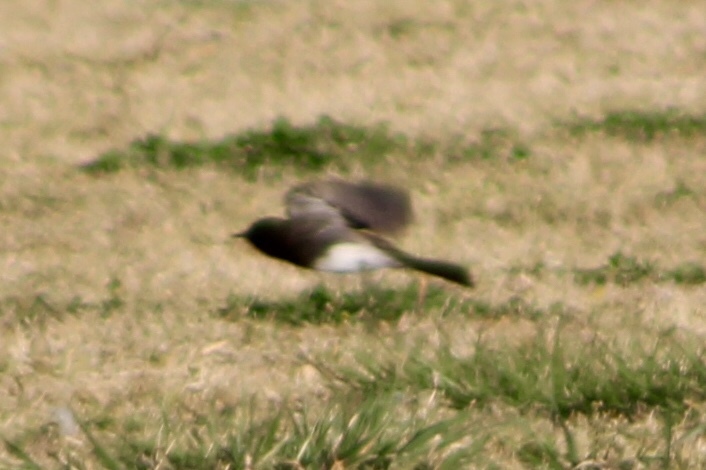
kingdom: Animalia
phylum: Chordata
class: Aves
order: Passeriformes
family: Tyrannidae
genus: Sayornis
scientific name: Sayornis nigricans
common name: Black phoebe
